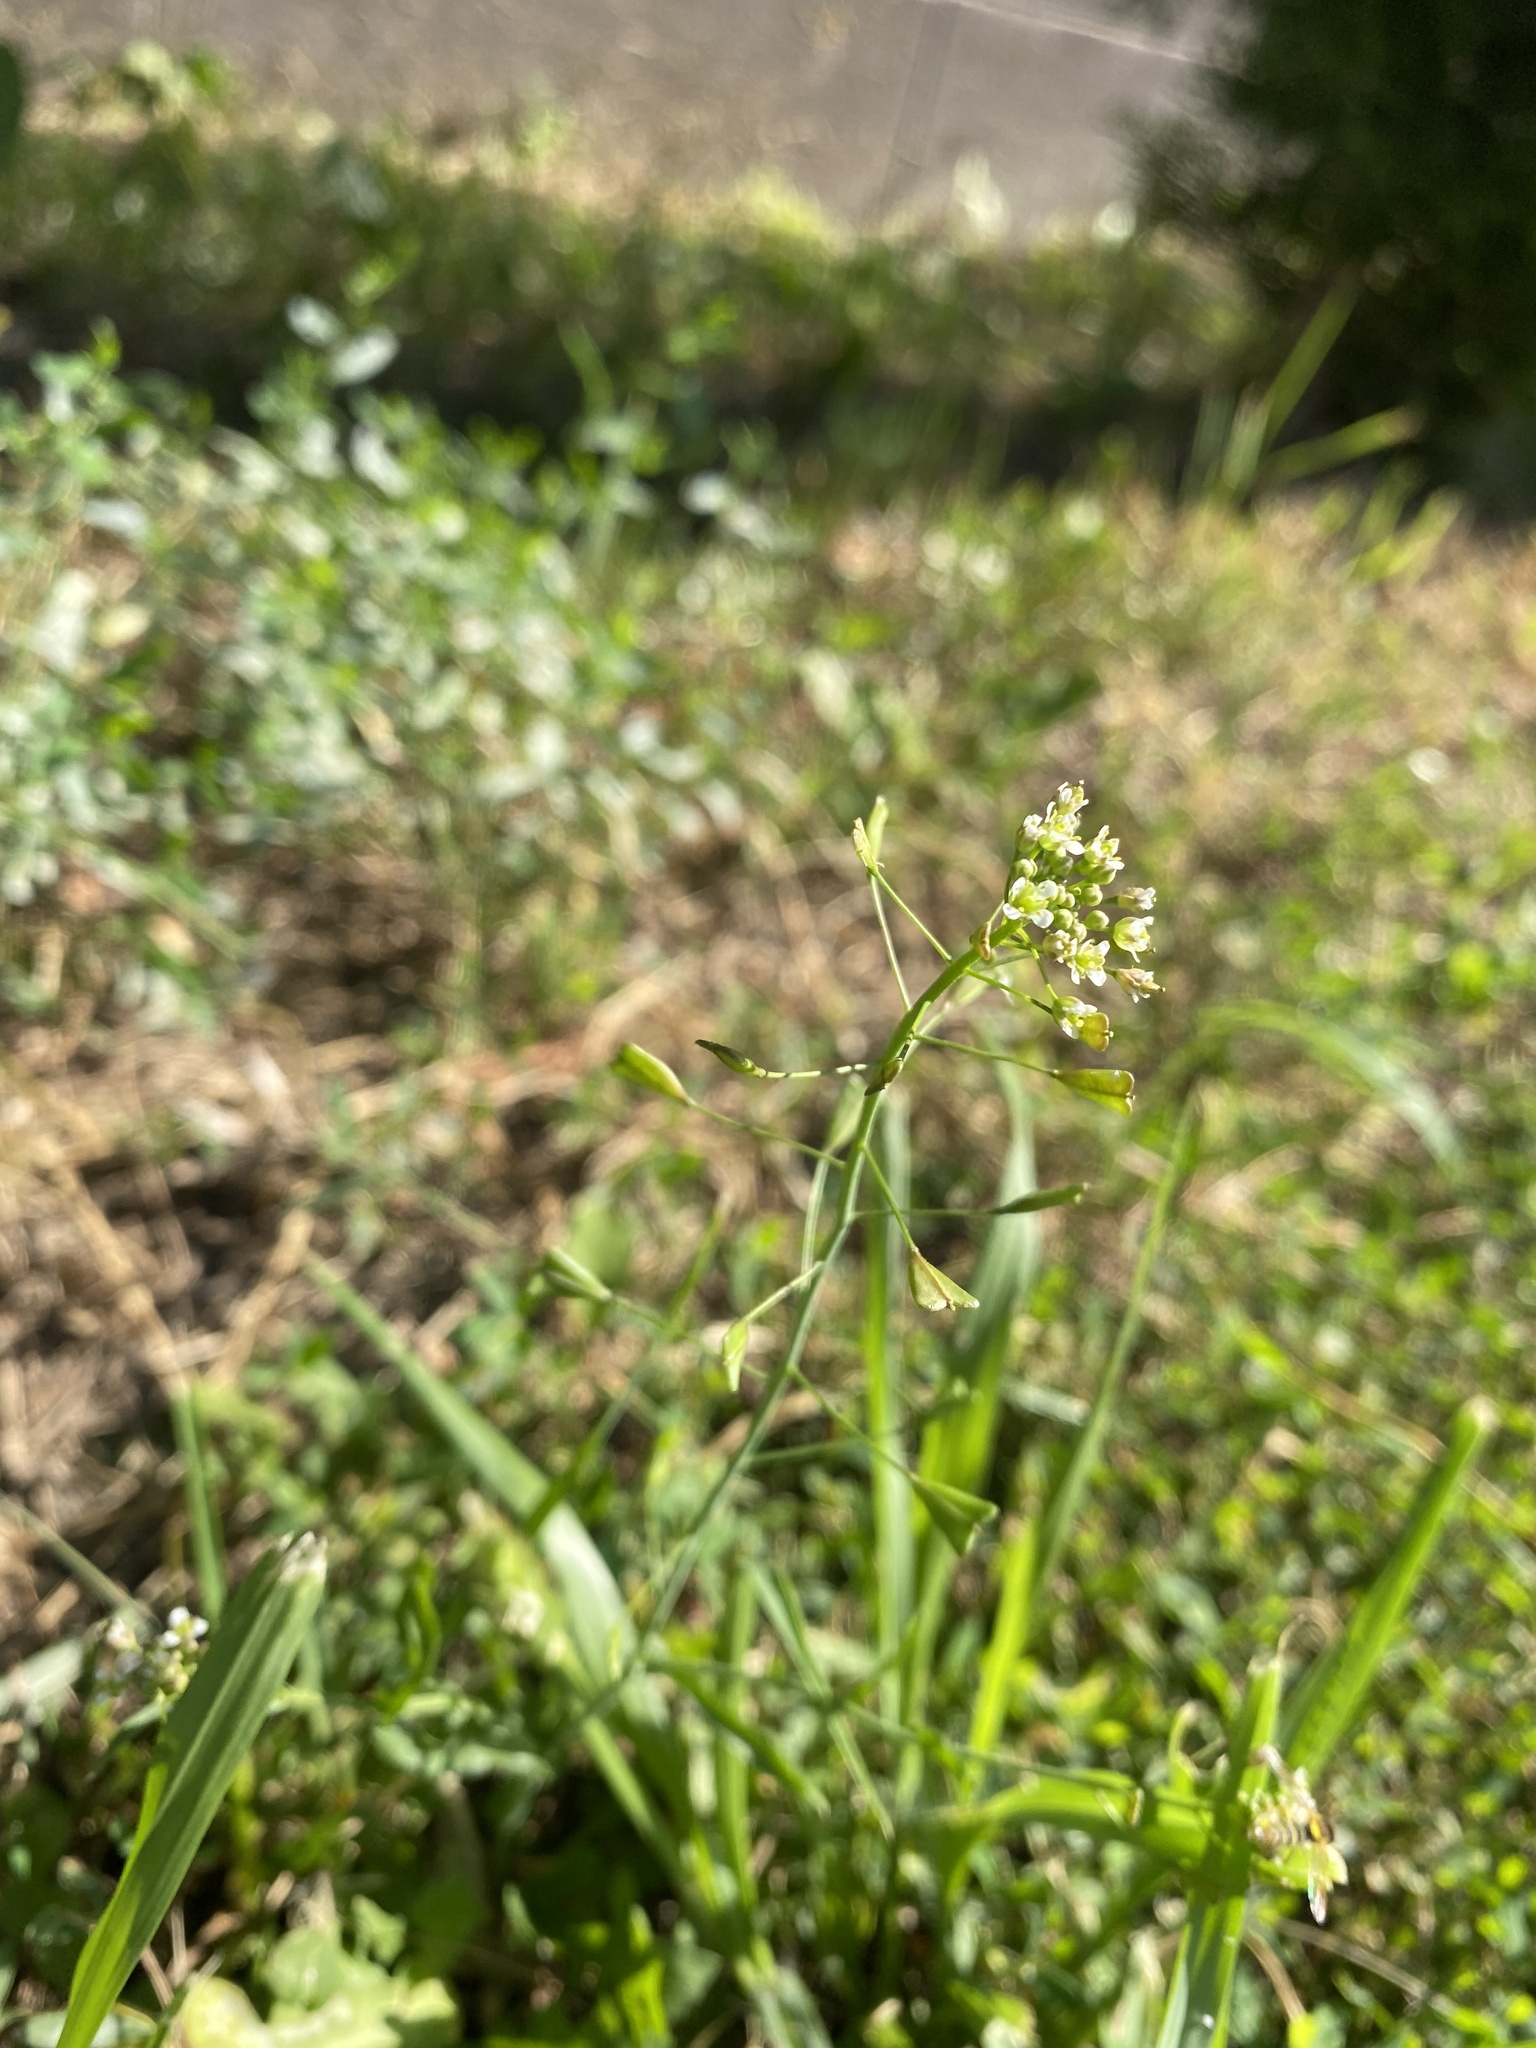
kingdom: Plantae
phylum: Tracheophyta
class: Magnoliopsida
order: Brassicales
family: Brassicaceae
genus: Capsella
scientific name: Capsella bursa-pastoris
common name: Shepherd's purse
